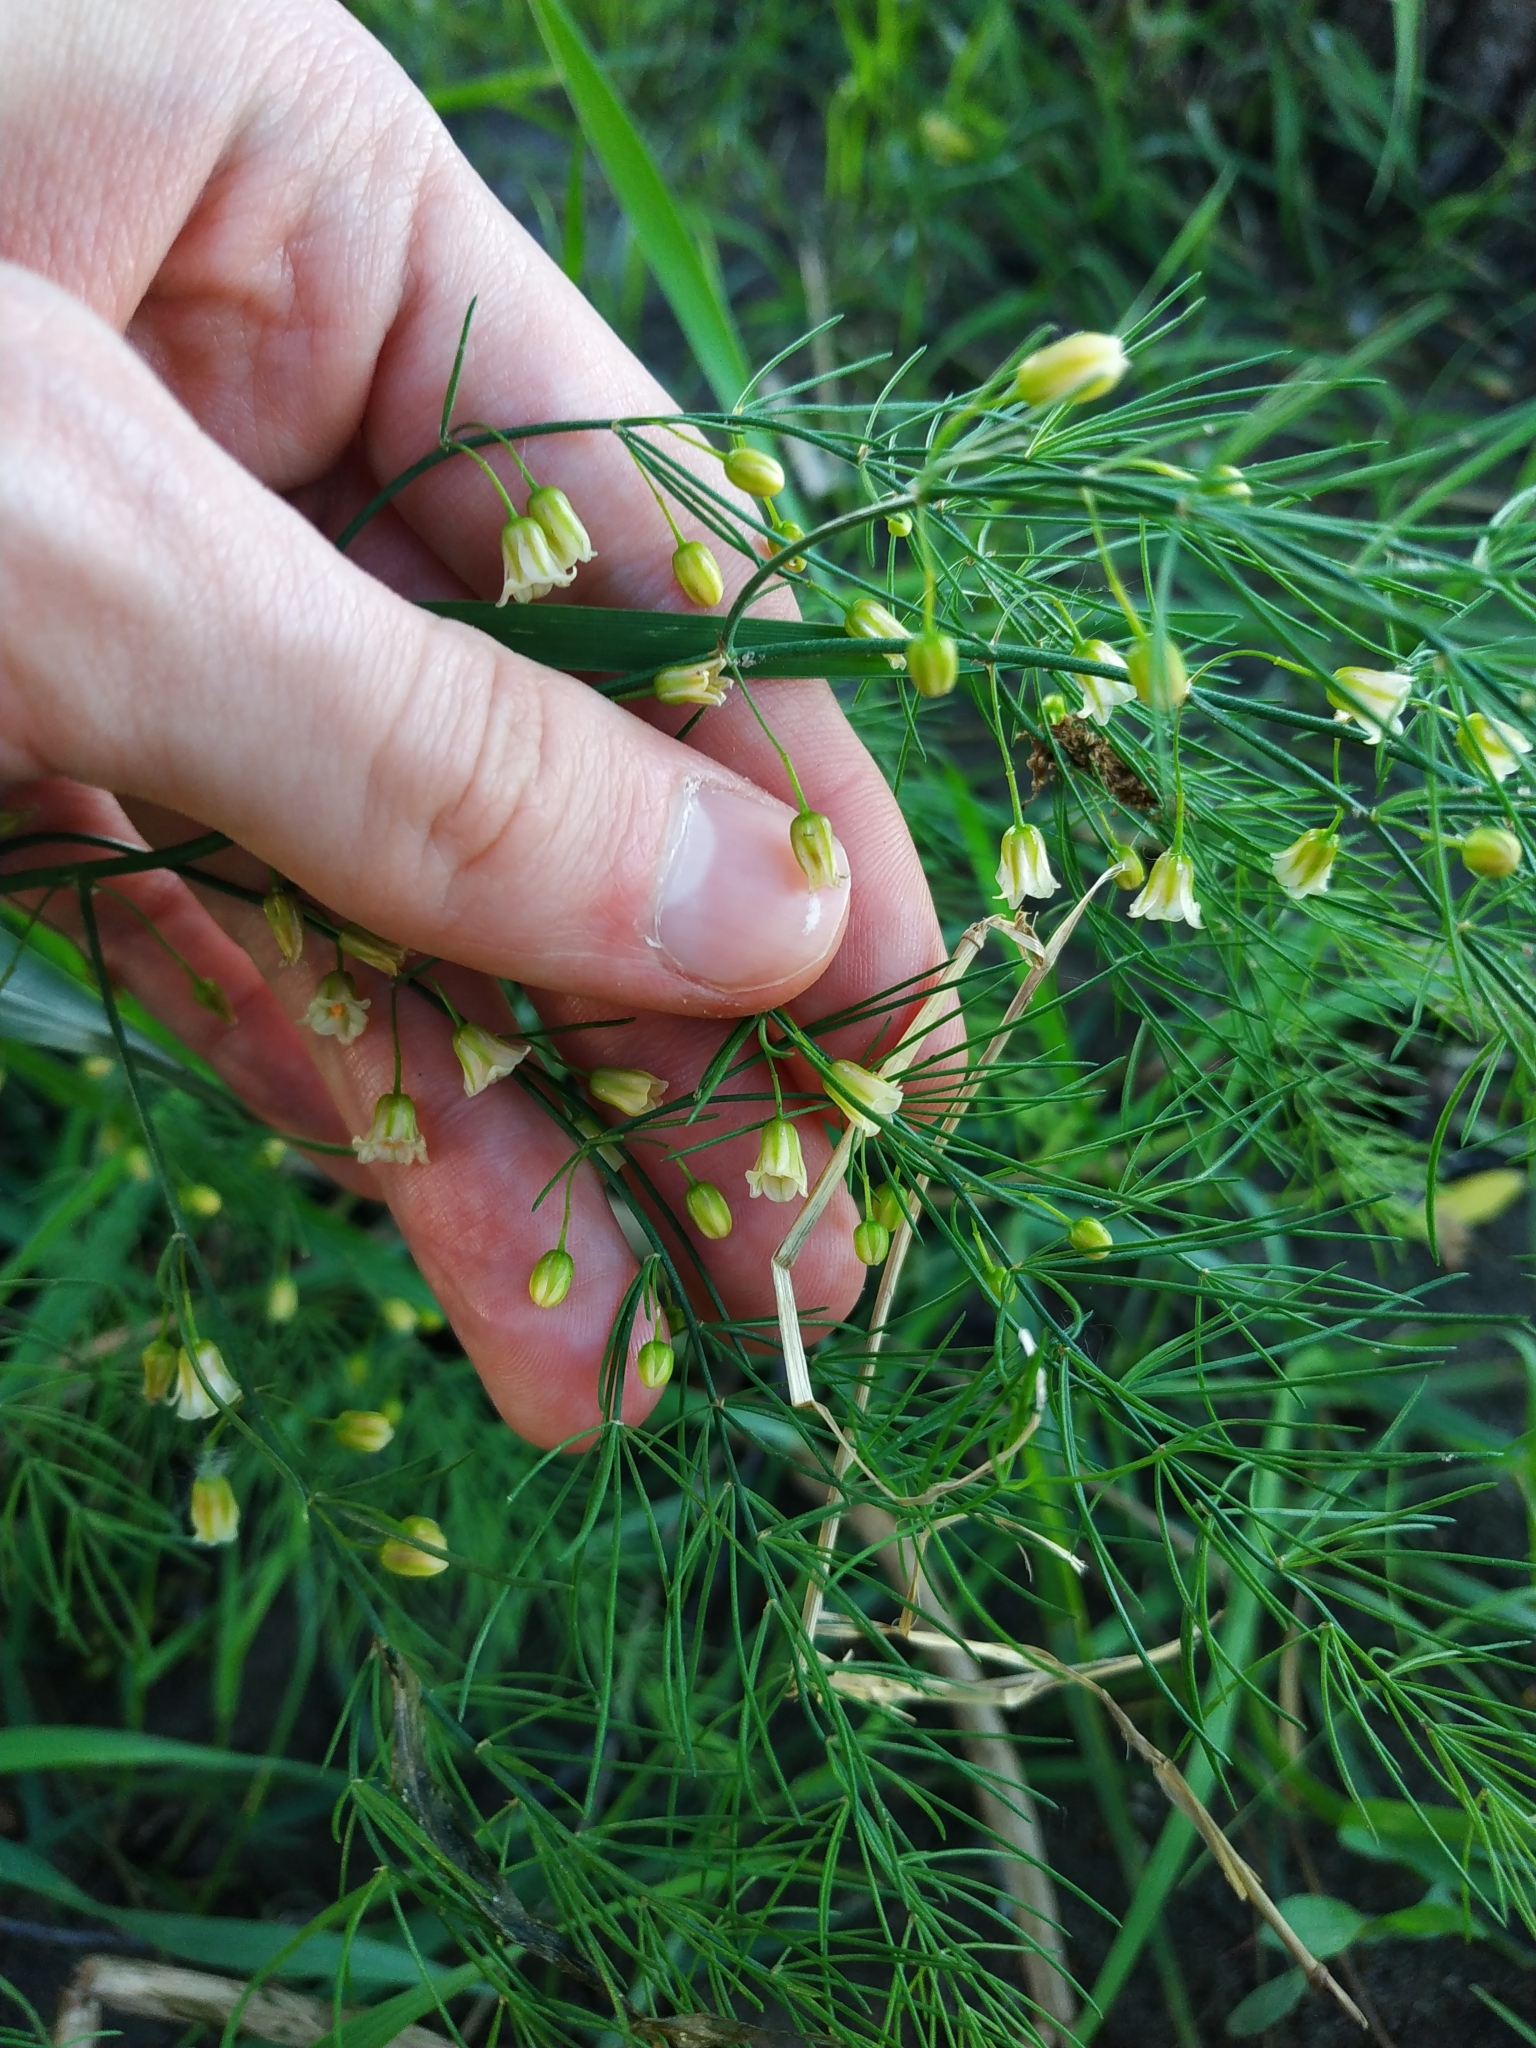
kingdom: Plantae
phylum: Tracheophyta
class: Liliopsida
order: Asparagales
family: Asparagaceae
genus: Asparagus
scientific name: Asparagus officinalis
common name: Garden asparagus
